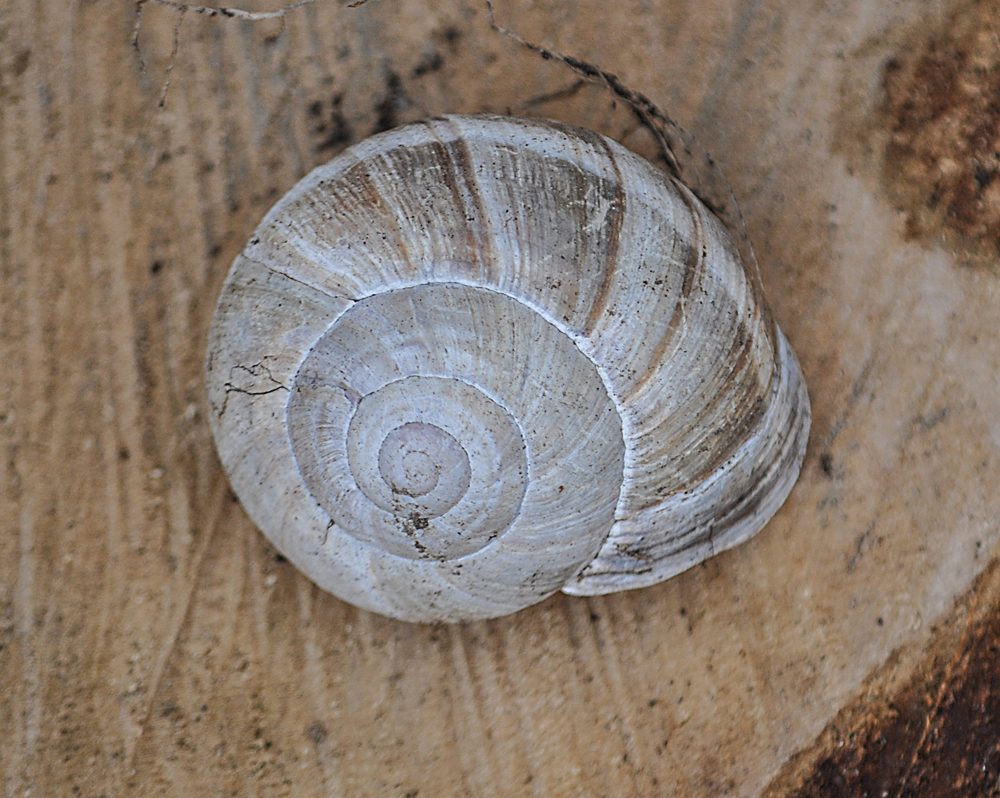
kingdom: Animalia
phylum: Mollusca
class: Gastropoda
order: Stylommatophora
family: Helicidae
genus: Helix
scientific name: Helix lucorum
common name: Turkish snail
